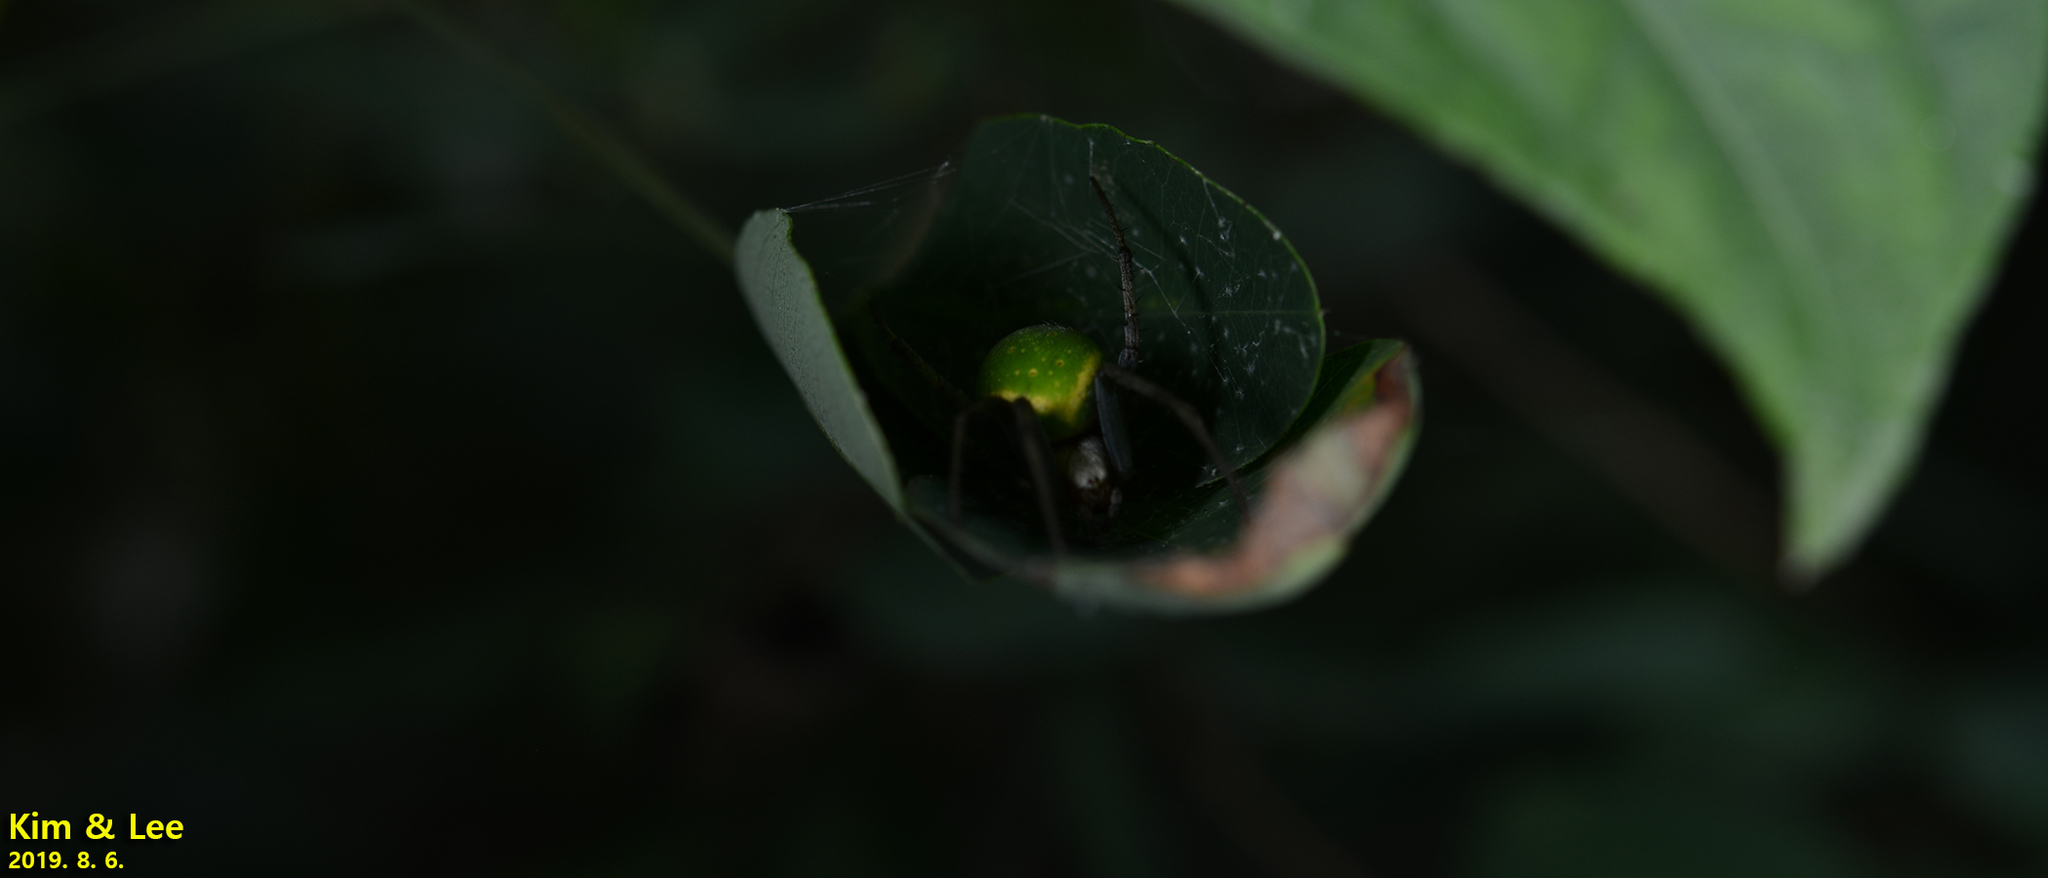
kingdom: Animalia
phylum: Arthropoda
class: Arachnida
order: Araneae
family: Araneidae
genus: Neoscona
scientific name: Neoscona scylloides
